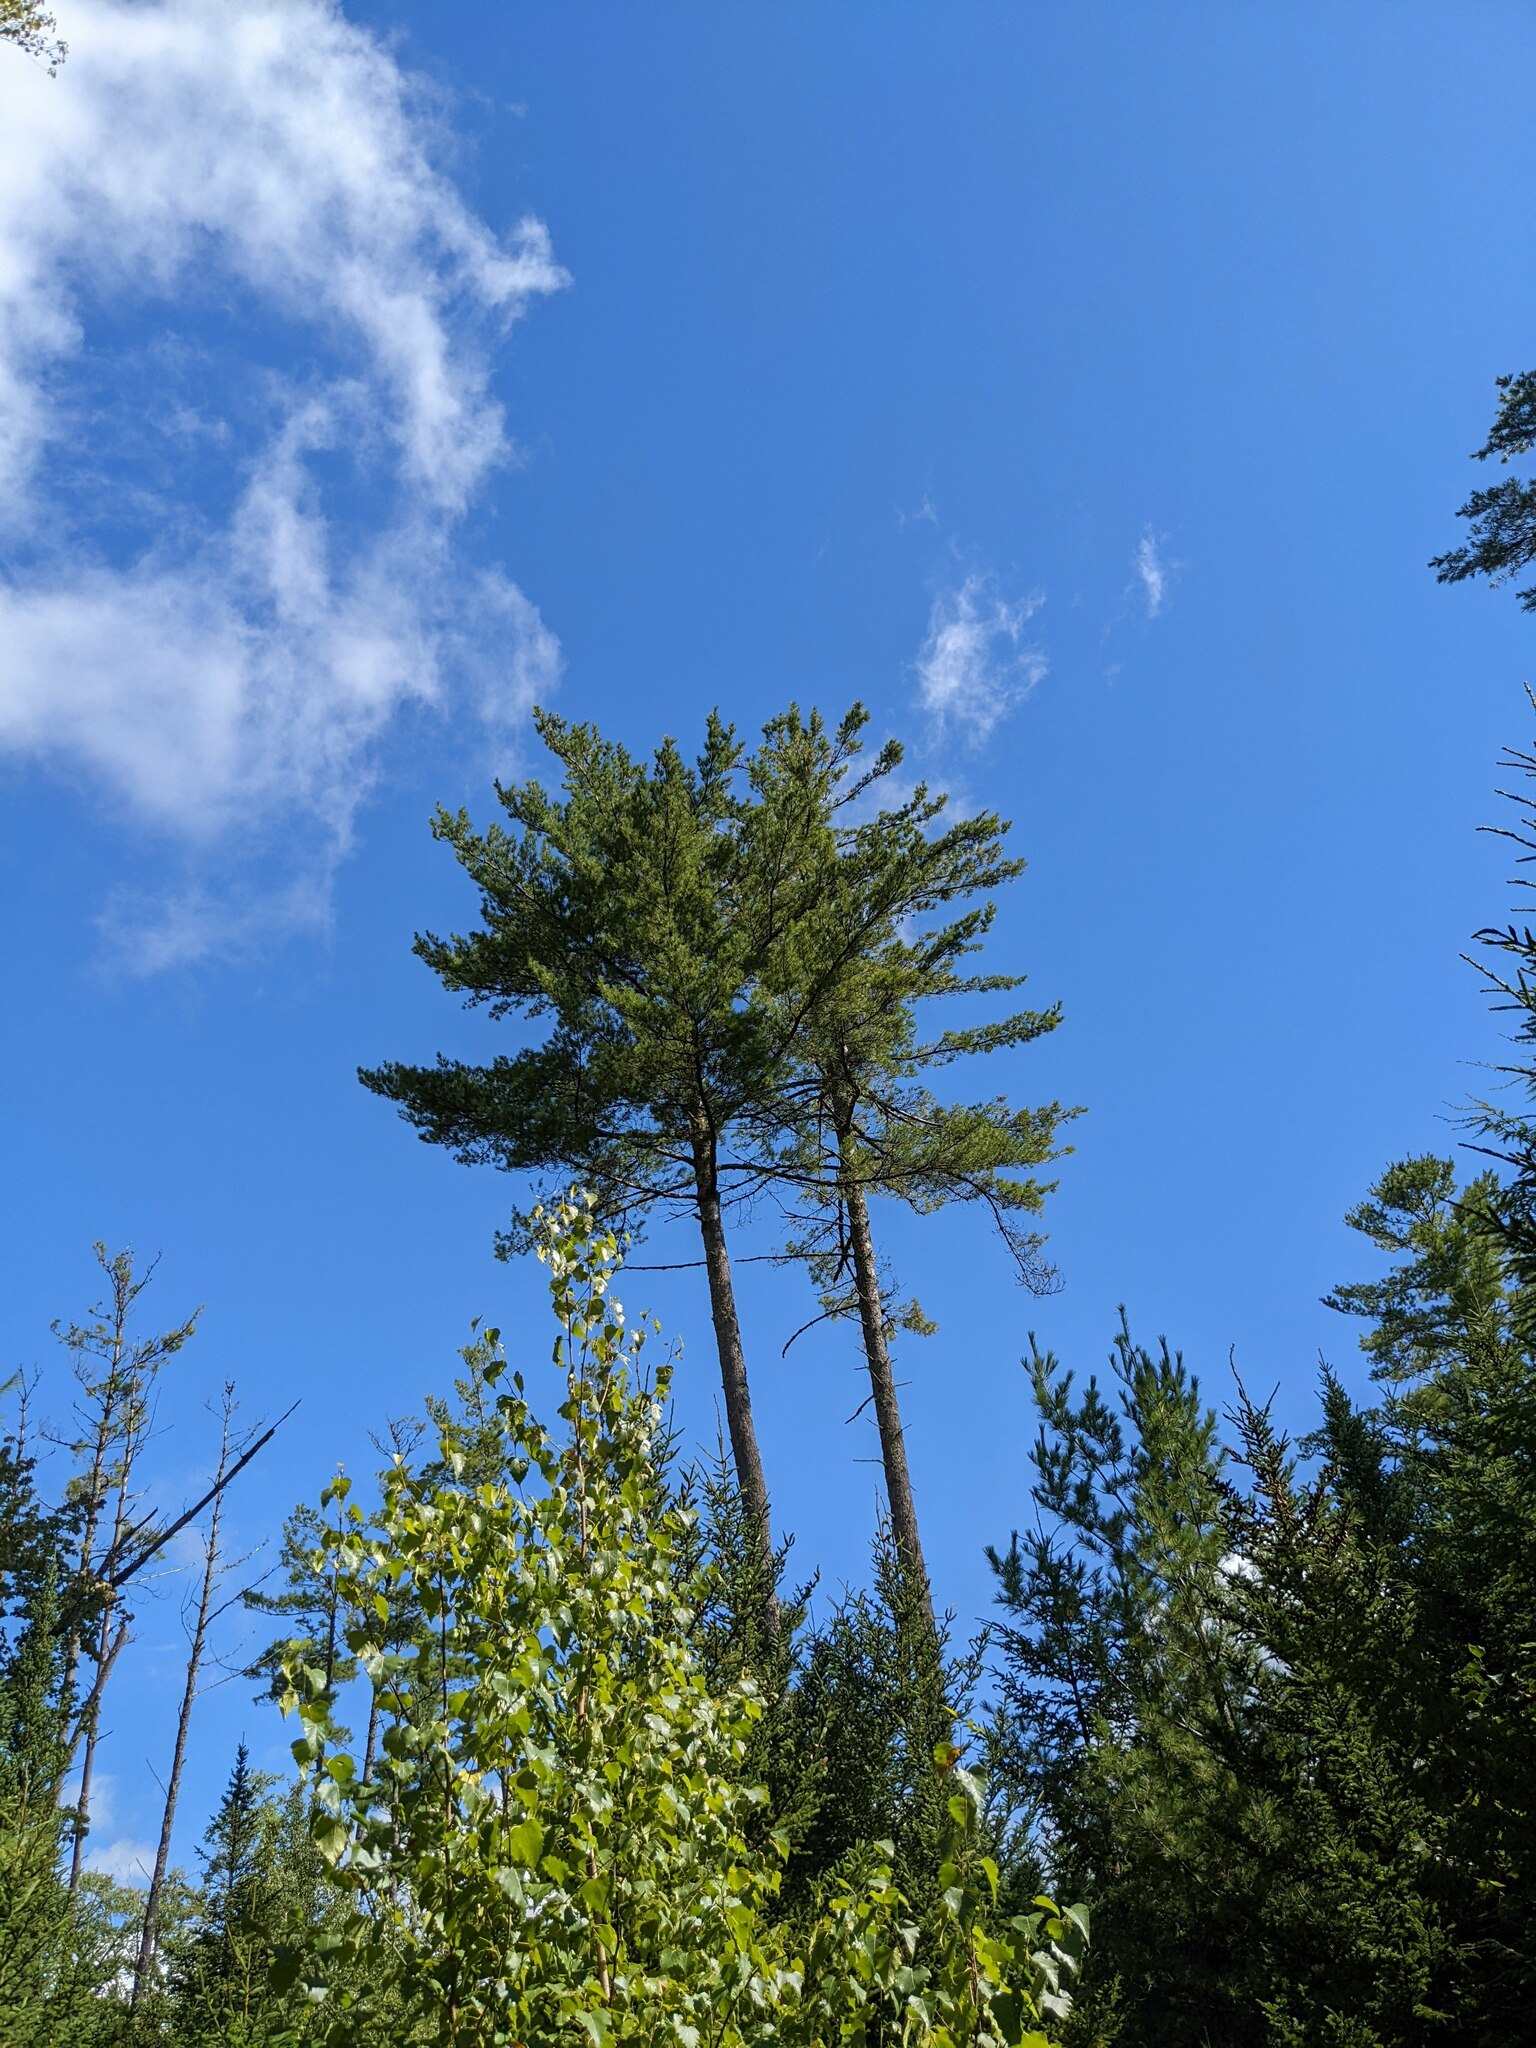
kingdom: Plantae
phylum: Tracheophyta
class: Pinopsida
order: Pinales
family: Pinaceae
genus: Pinus
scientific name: Pinus strobus
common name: Weymouth pine
